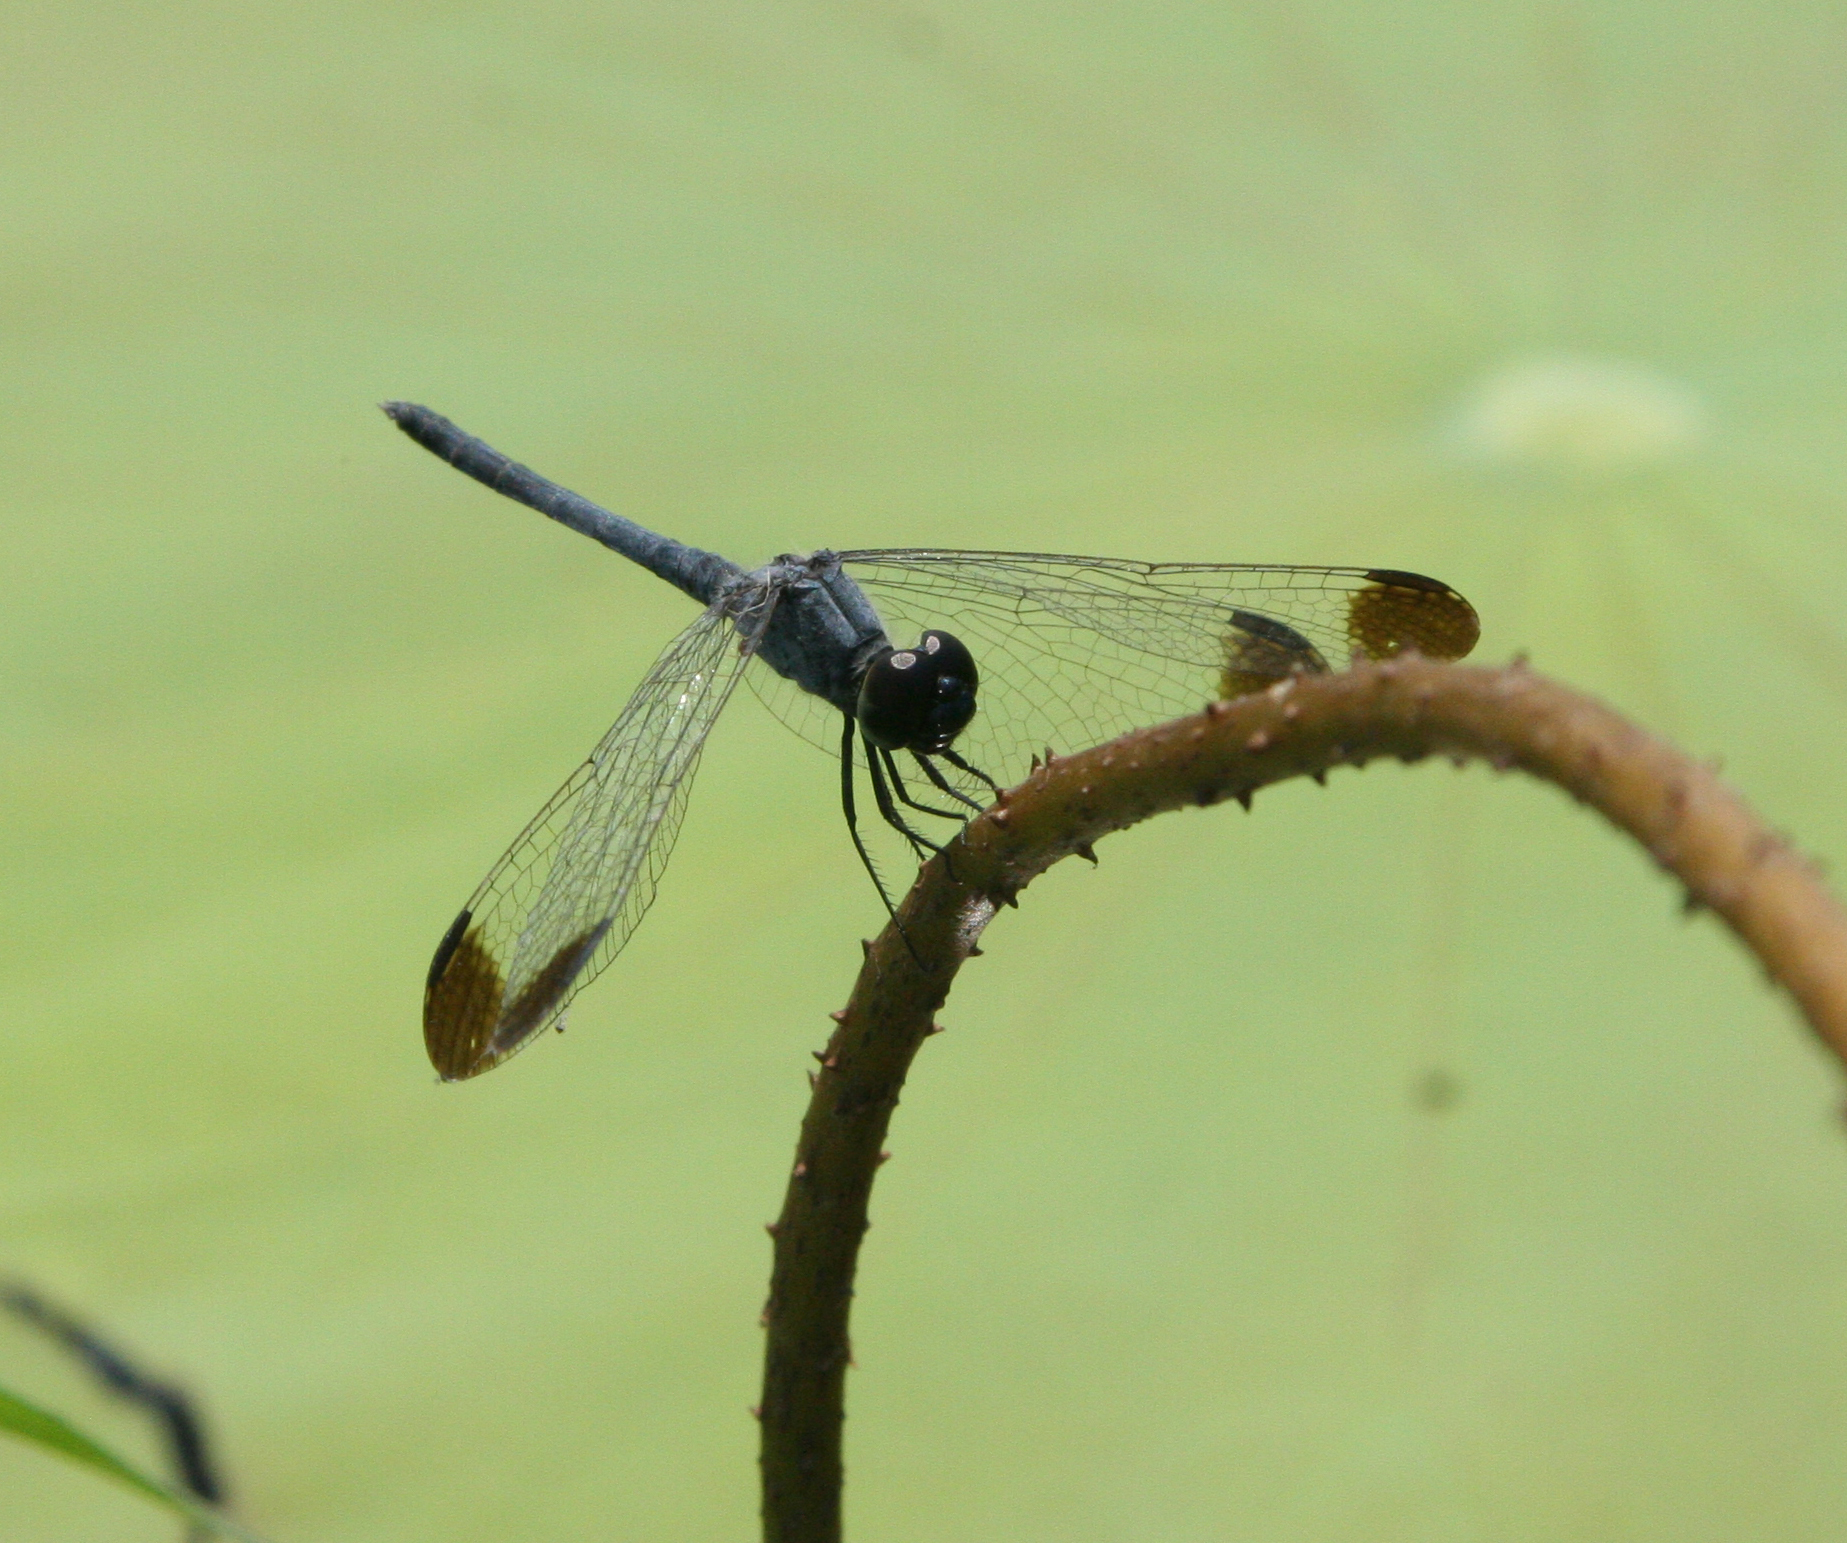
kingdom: Animalia
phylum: Arthropoda
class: Insecta
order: Odonata
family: Libellulidae
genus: Diplacodes
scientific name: Diplacodes nebulosa
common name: Black-tipped percher
